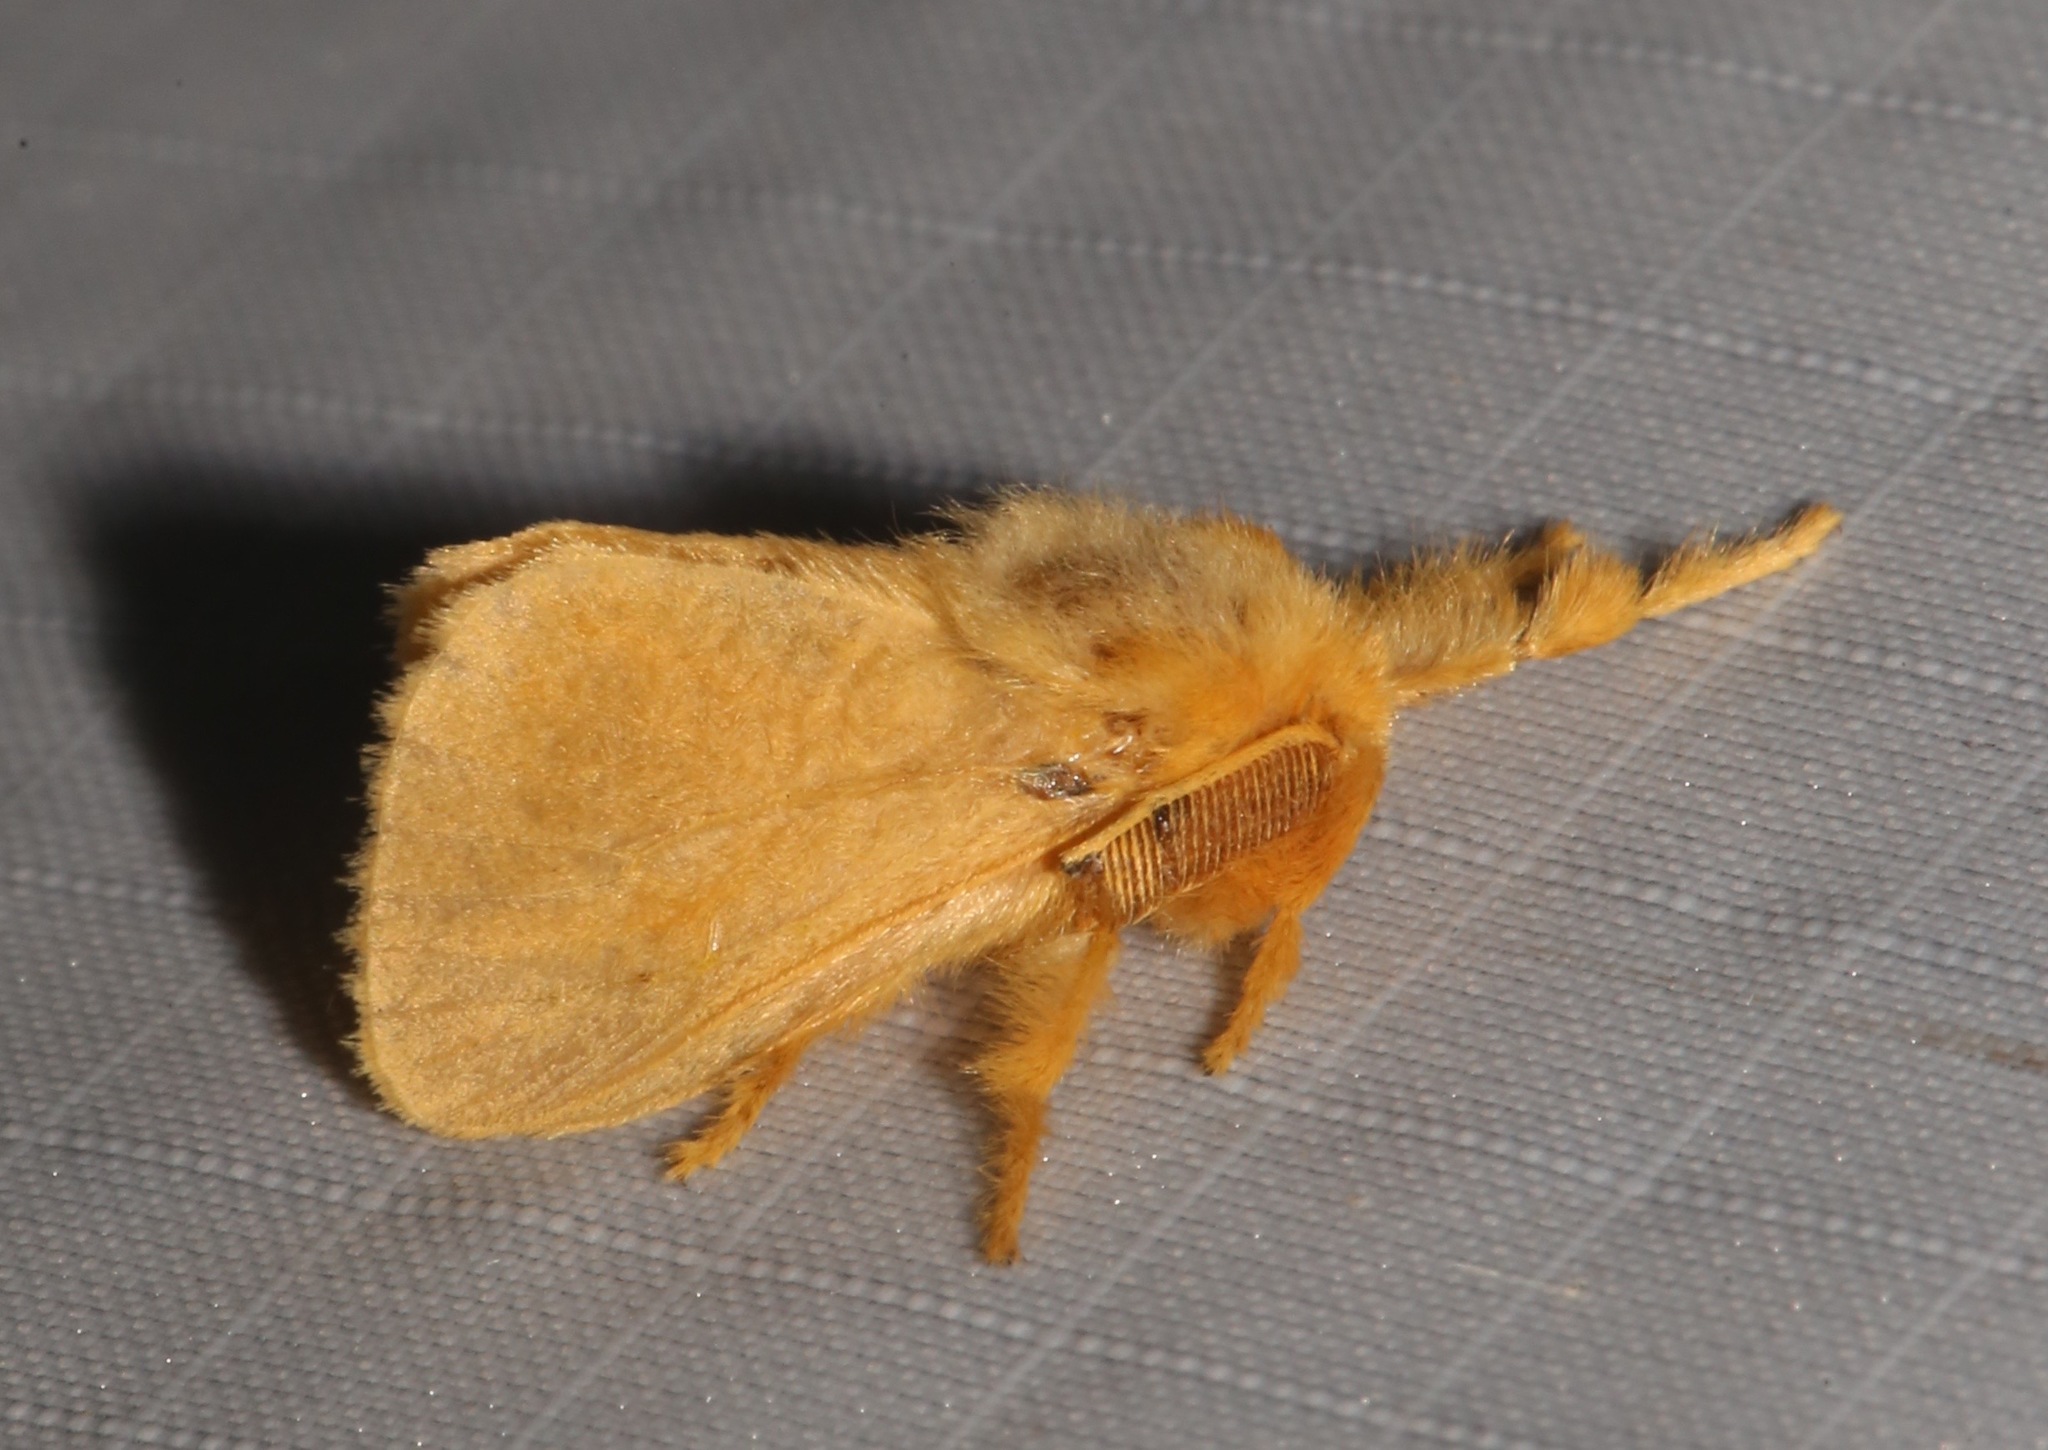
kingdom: Animalia
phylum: Arthropoda
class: Insecta
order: Lepidoptera
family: Megalopygidae
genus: Megalopyge
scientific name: Megalopyge pixidifera
